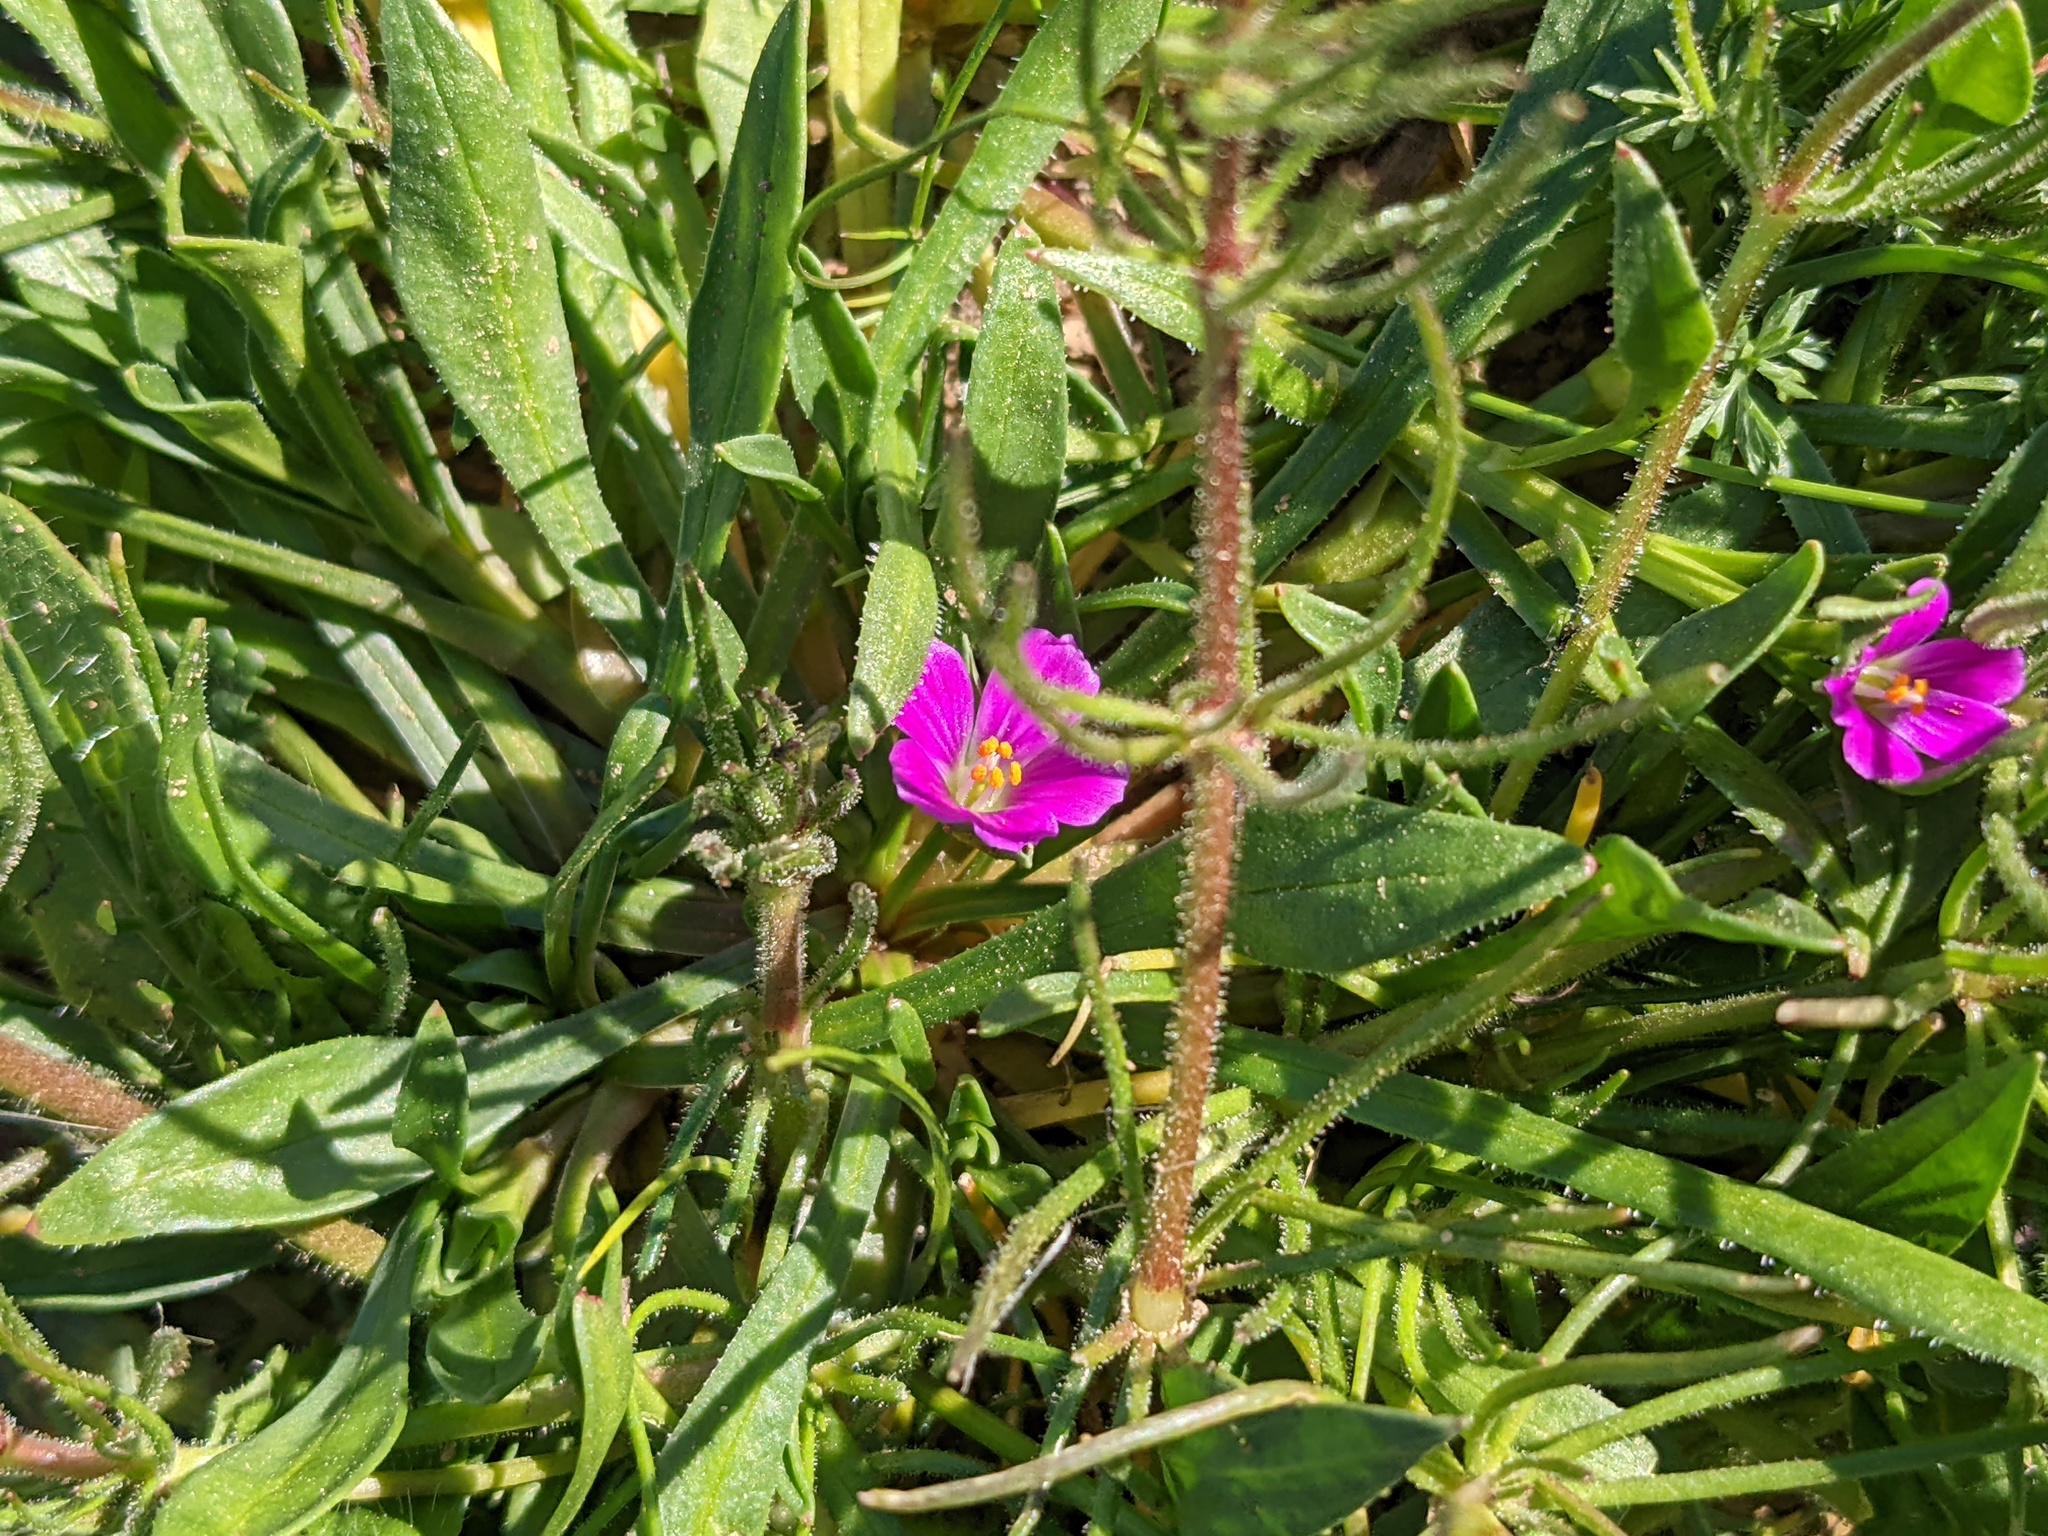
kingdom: Plantae
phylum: Tracheophyta
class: Magnoliopsida
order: Caryophyllales
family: Montiaceae
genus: Calandrinia
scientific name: Calandrinia menziesii
